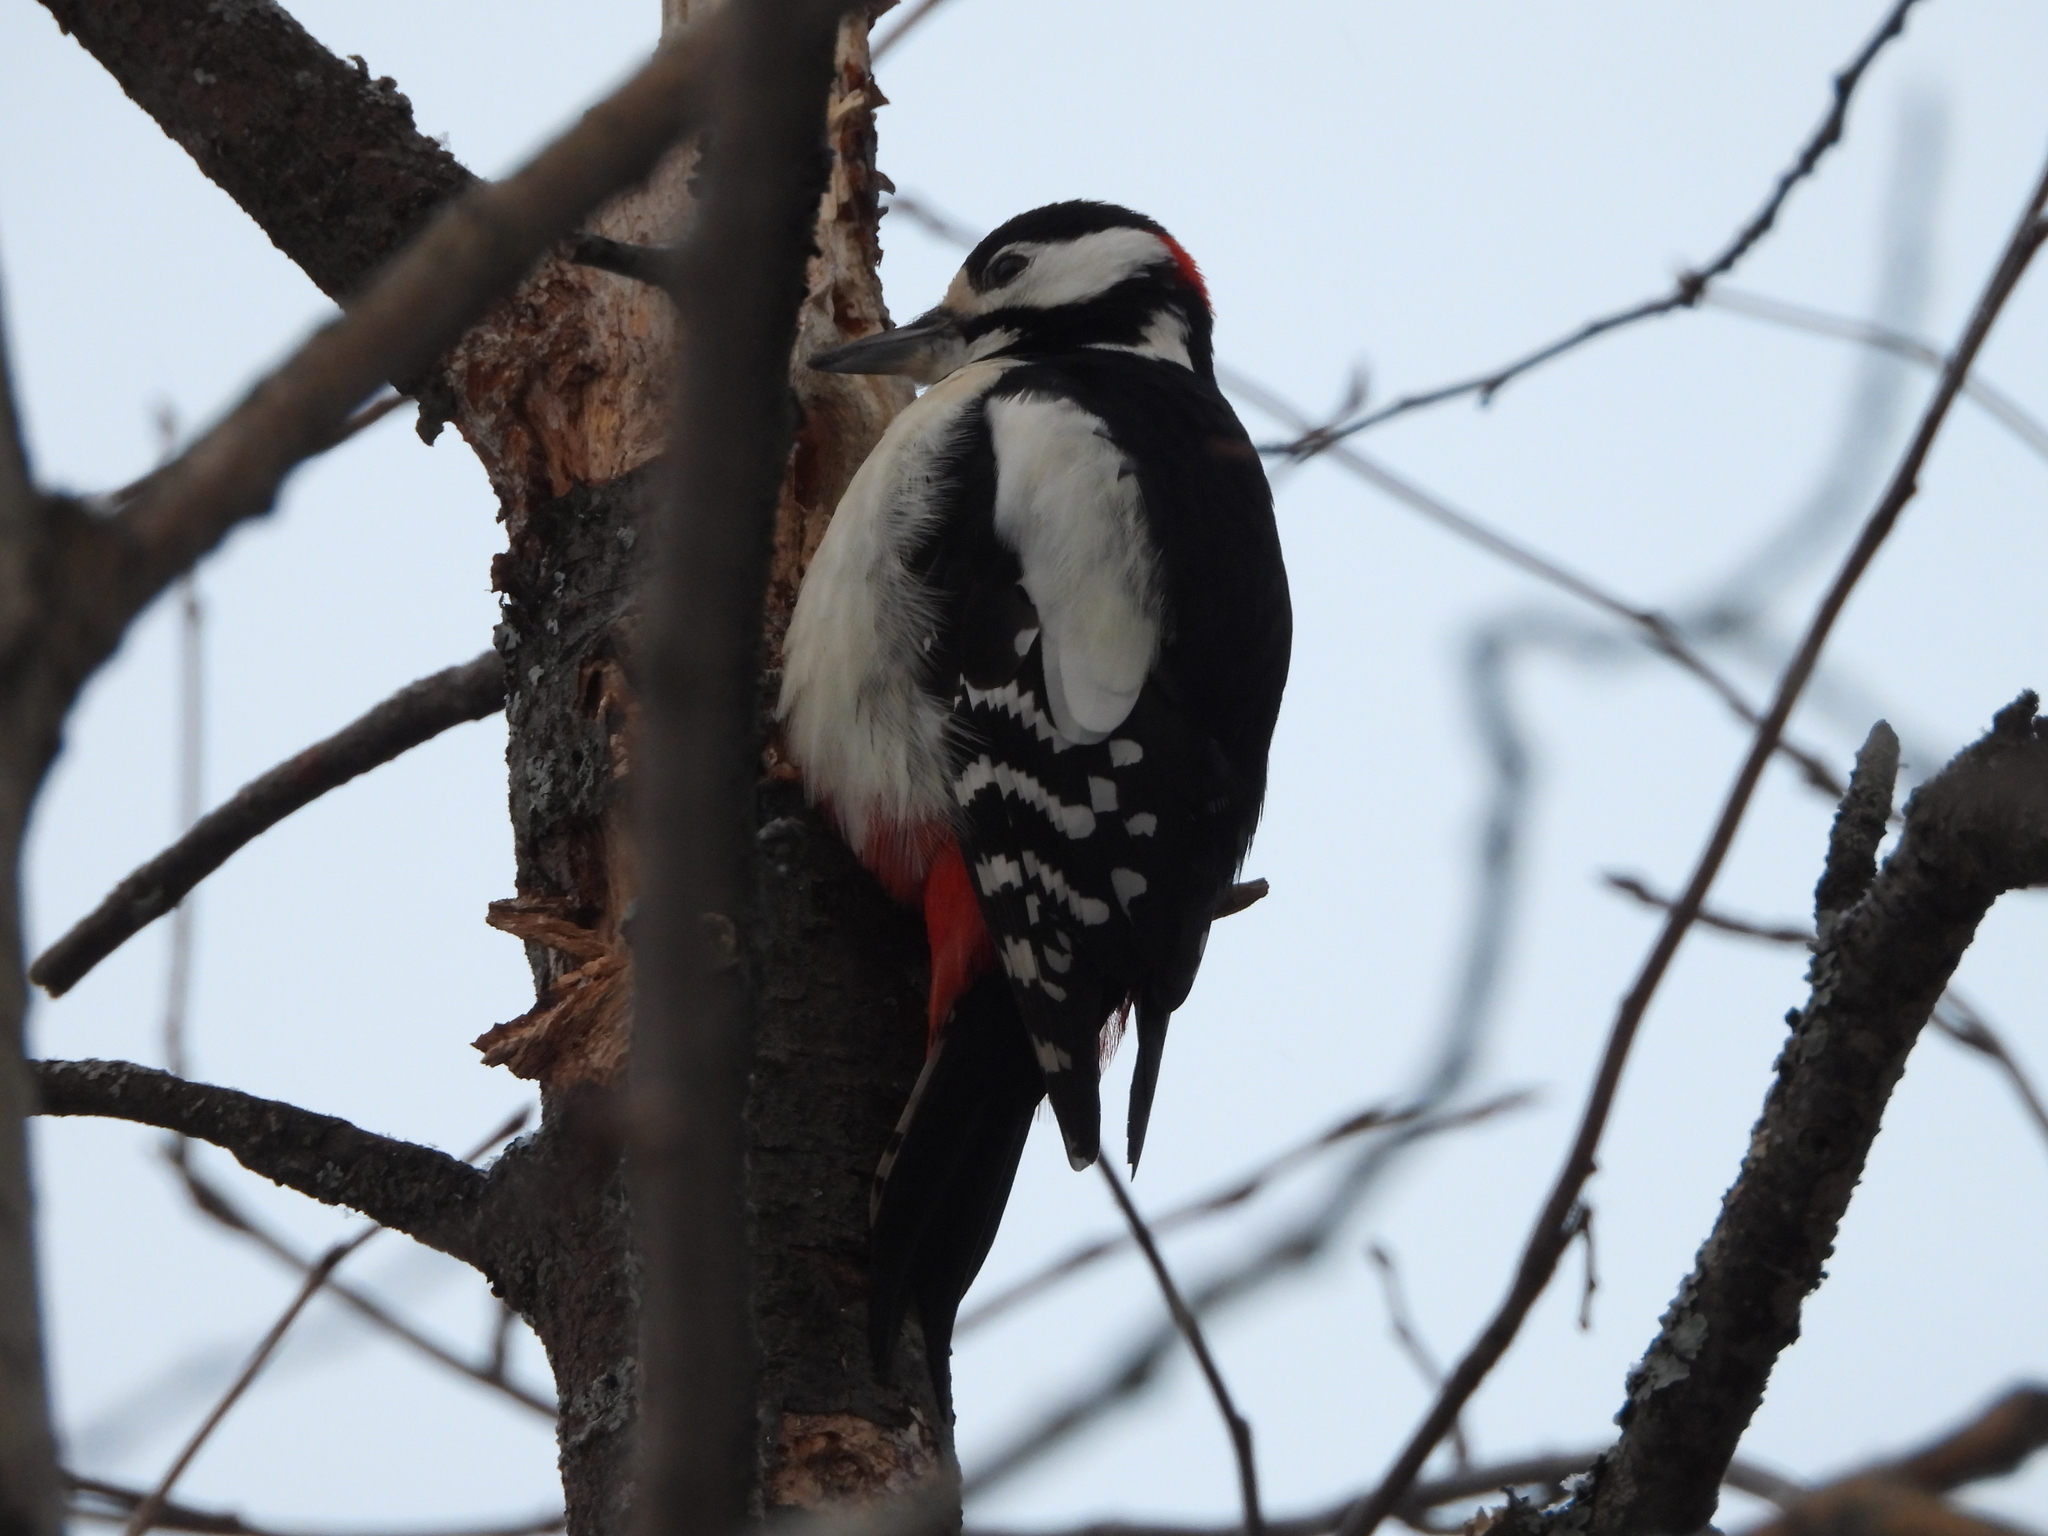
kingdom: Animalia
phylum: Chordata
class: Aves
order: Piciformes
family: Picidae
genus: Dendrocopos
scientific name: Dendrocopos major
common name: Great spotted woodpecker
